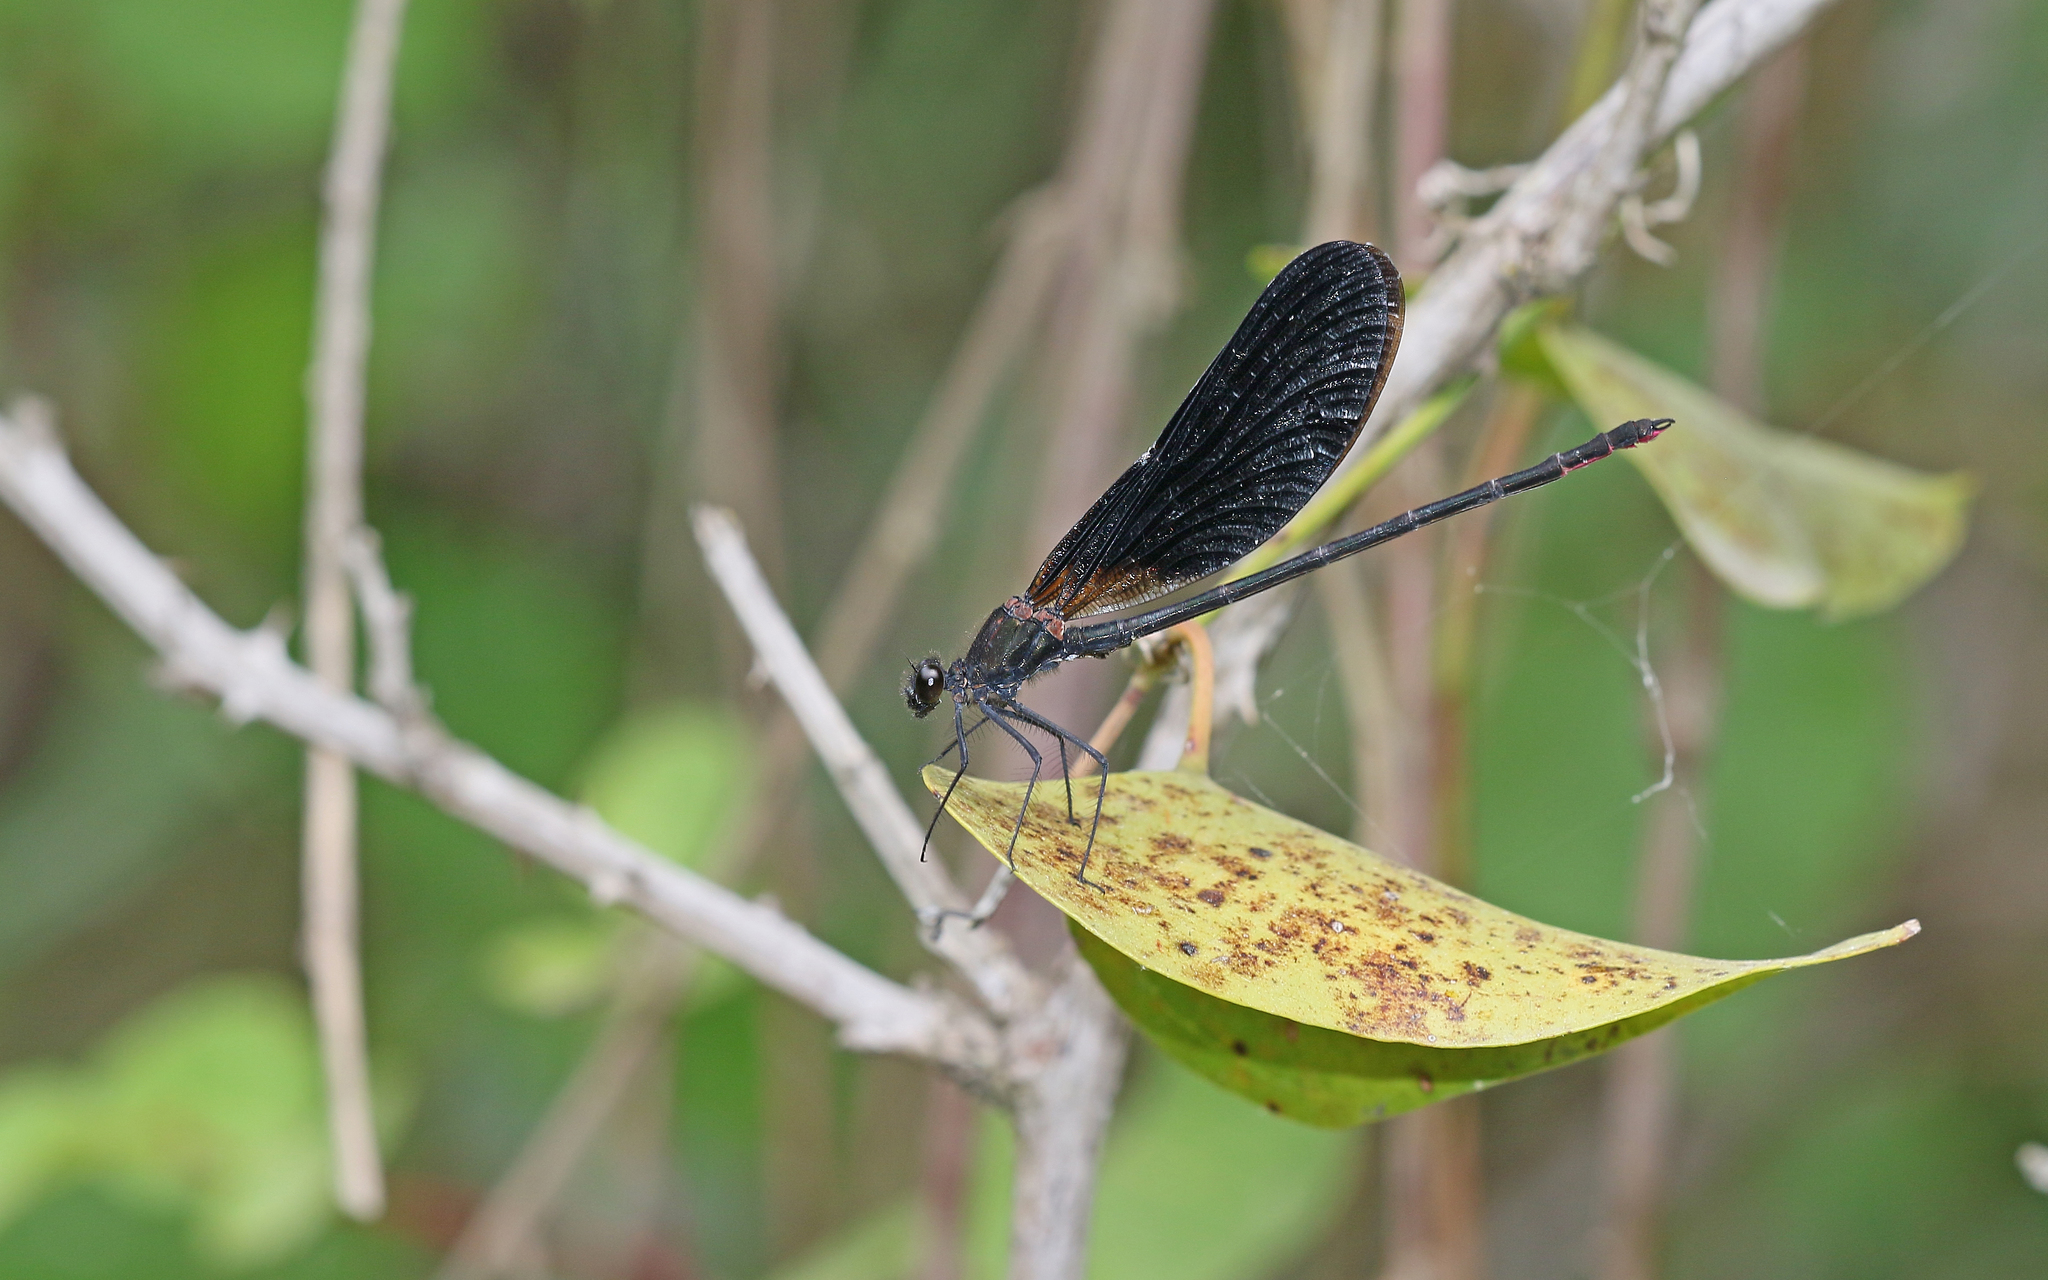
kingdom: Animalia
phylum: Arthropoda
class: Insecta
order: Odonata
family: Calopterygidae
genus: Calopteryx
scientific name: Calopteryx haemorrhoidalis
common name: Copper demoiselle
